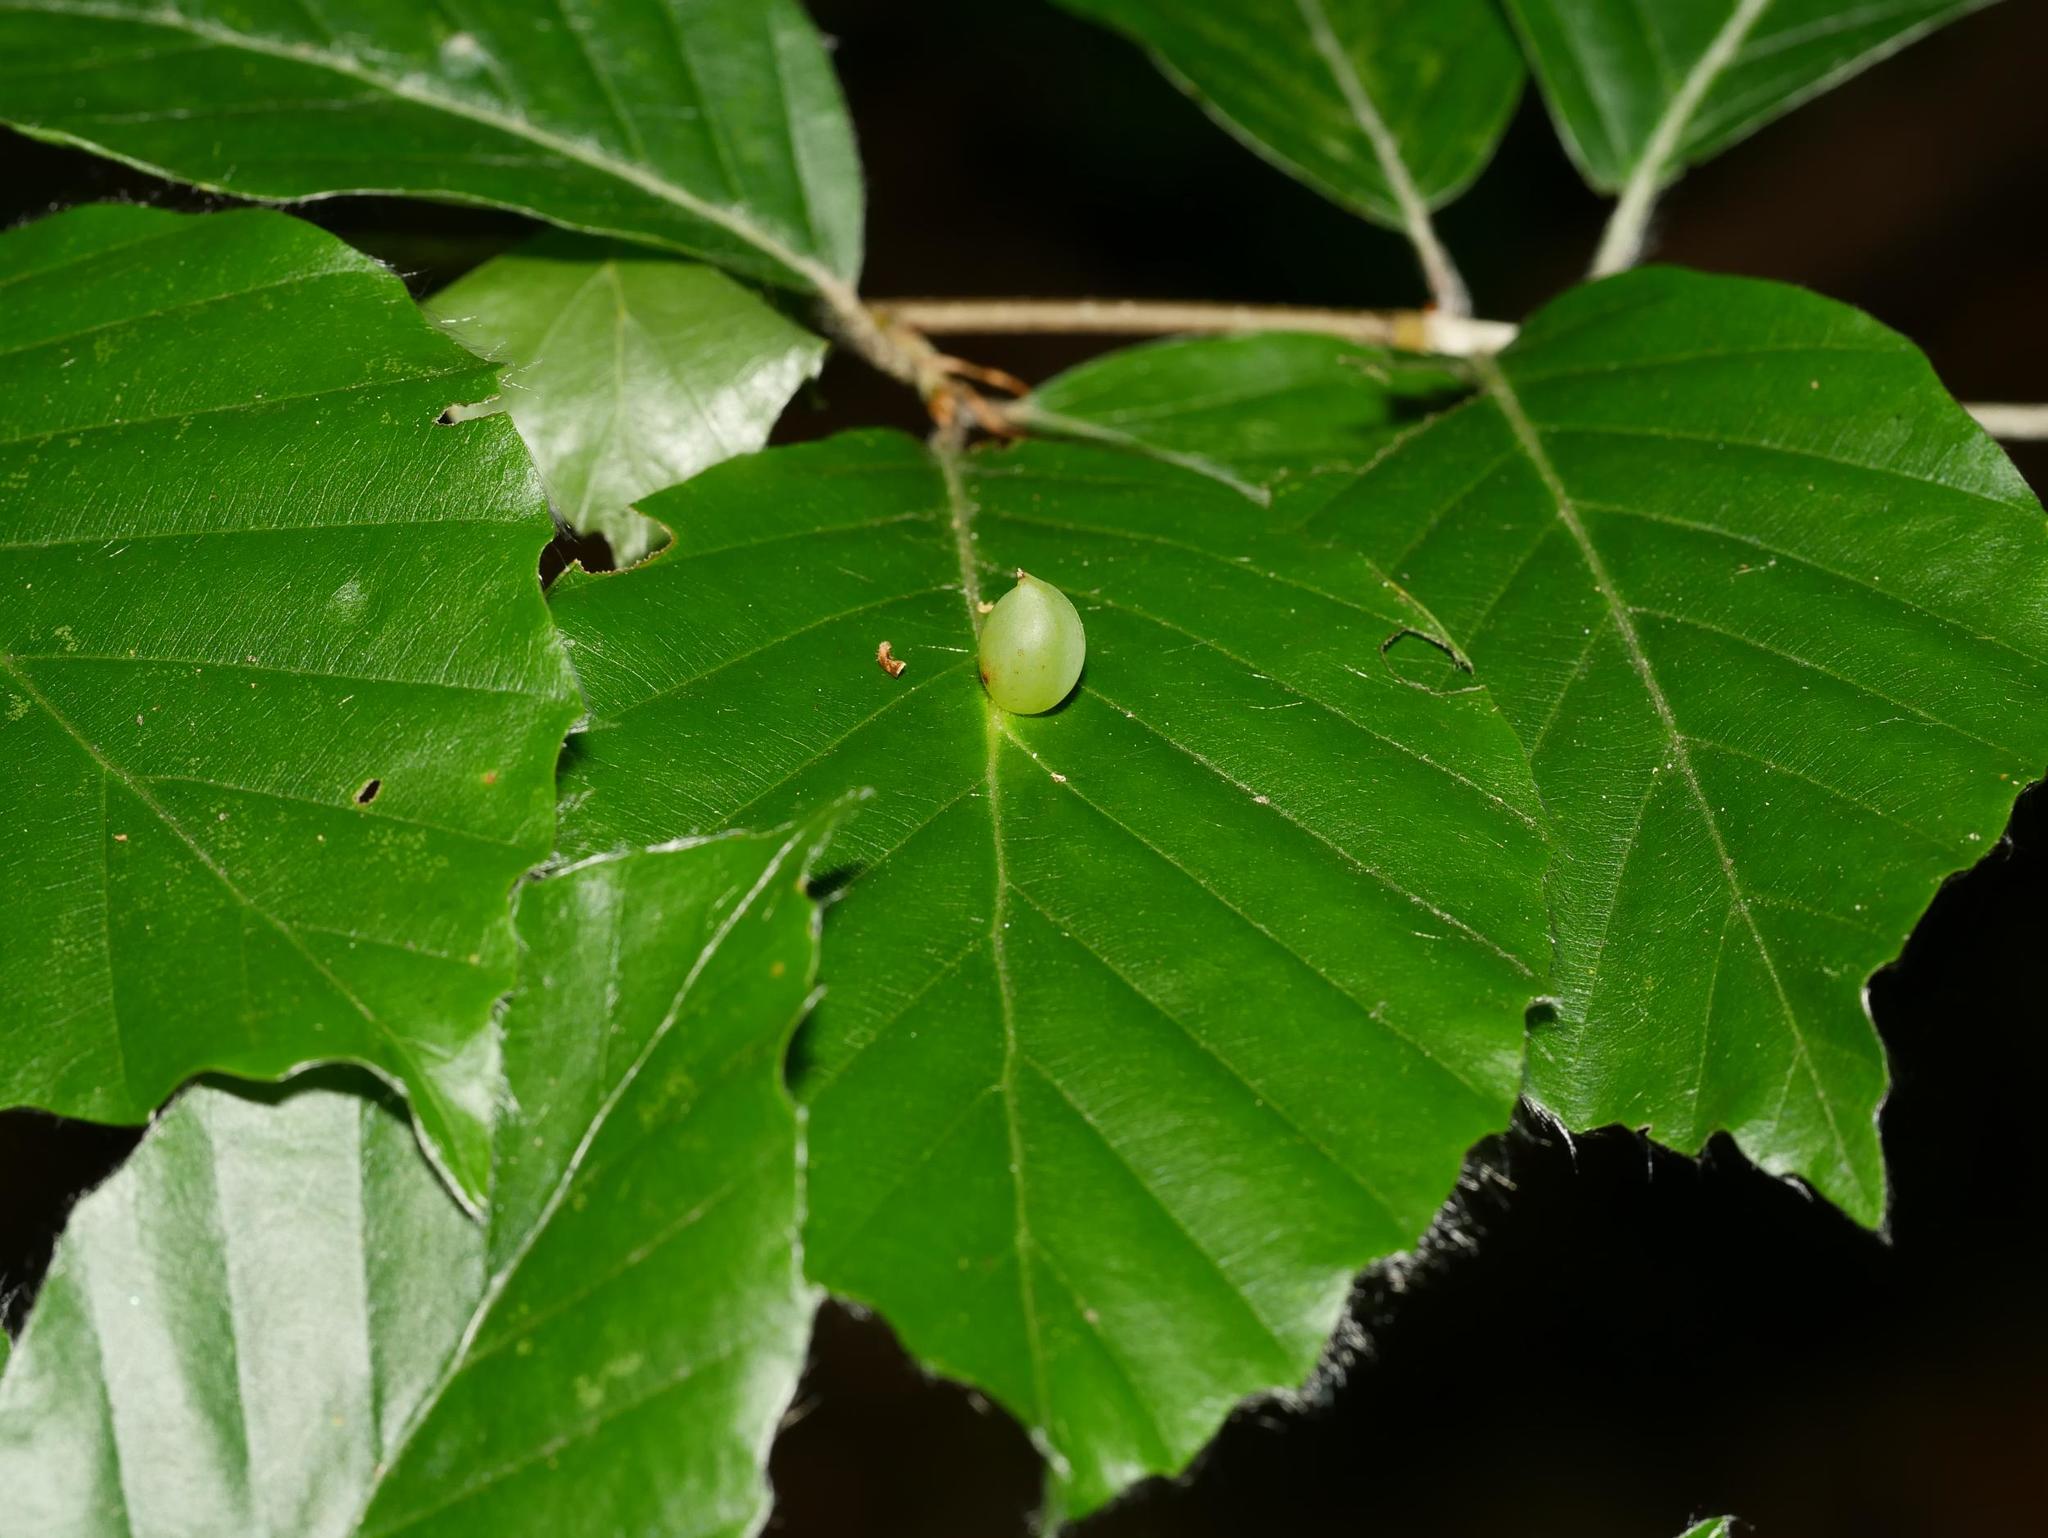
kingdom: Animalia
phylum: Arthropoda
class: Insecta
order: Diptera
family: Cecidomyiidae
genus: Mikiola
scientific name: Mikiola fagi
